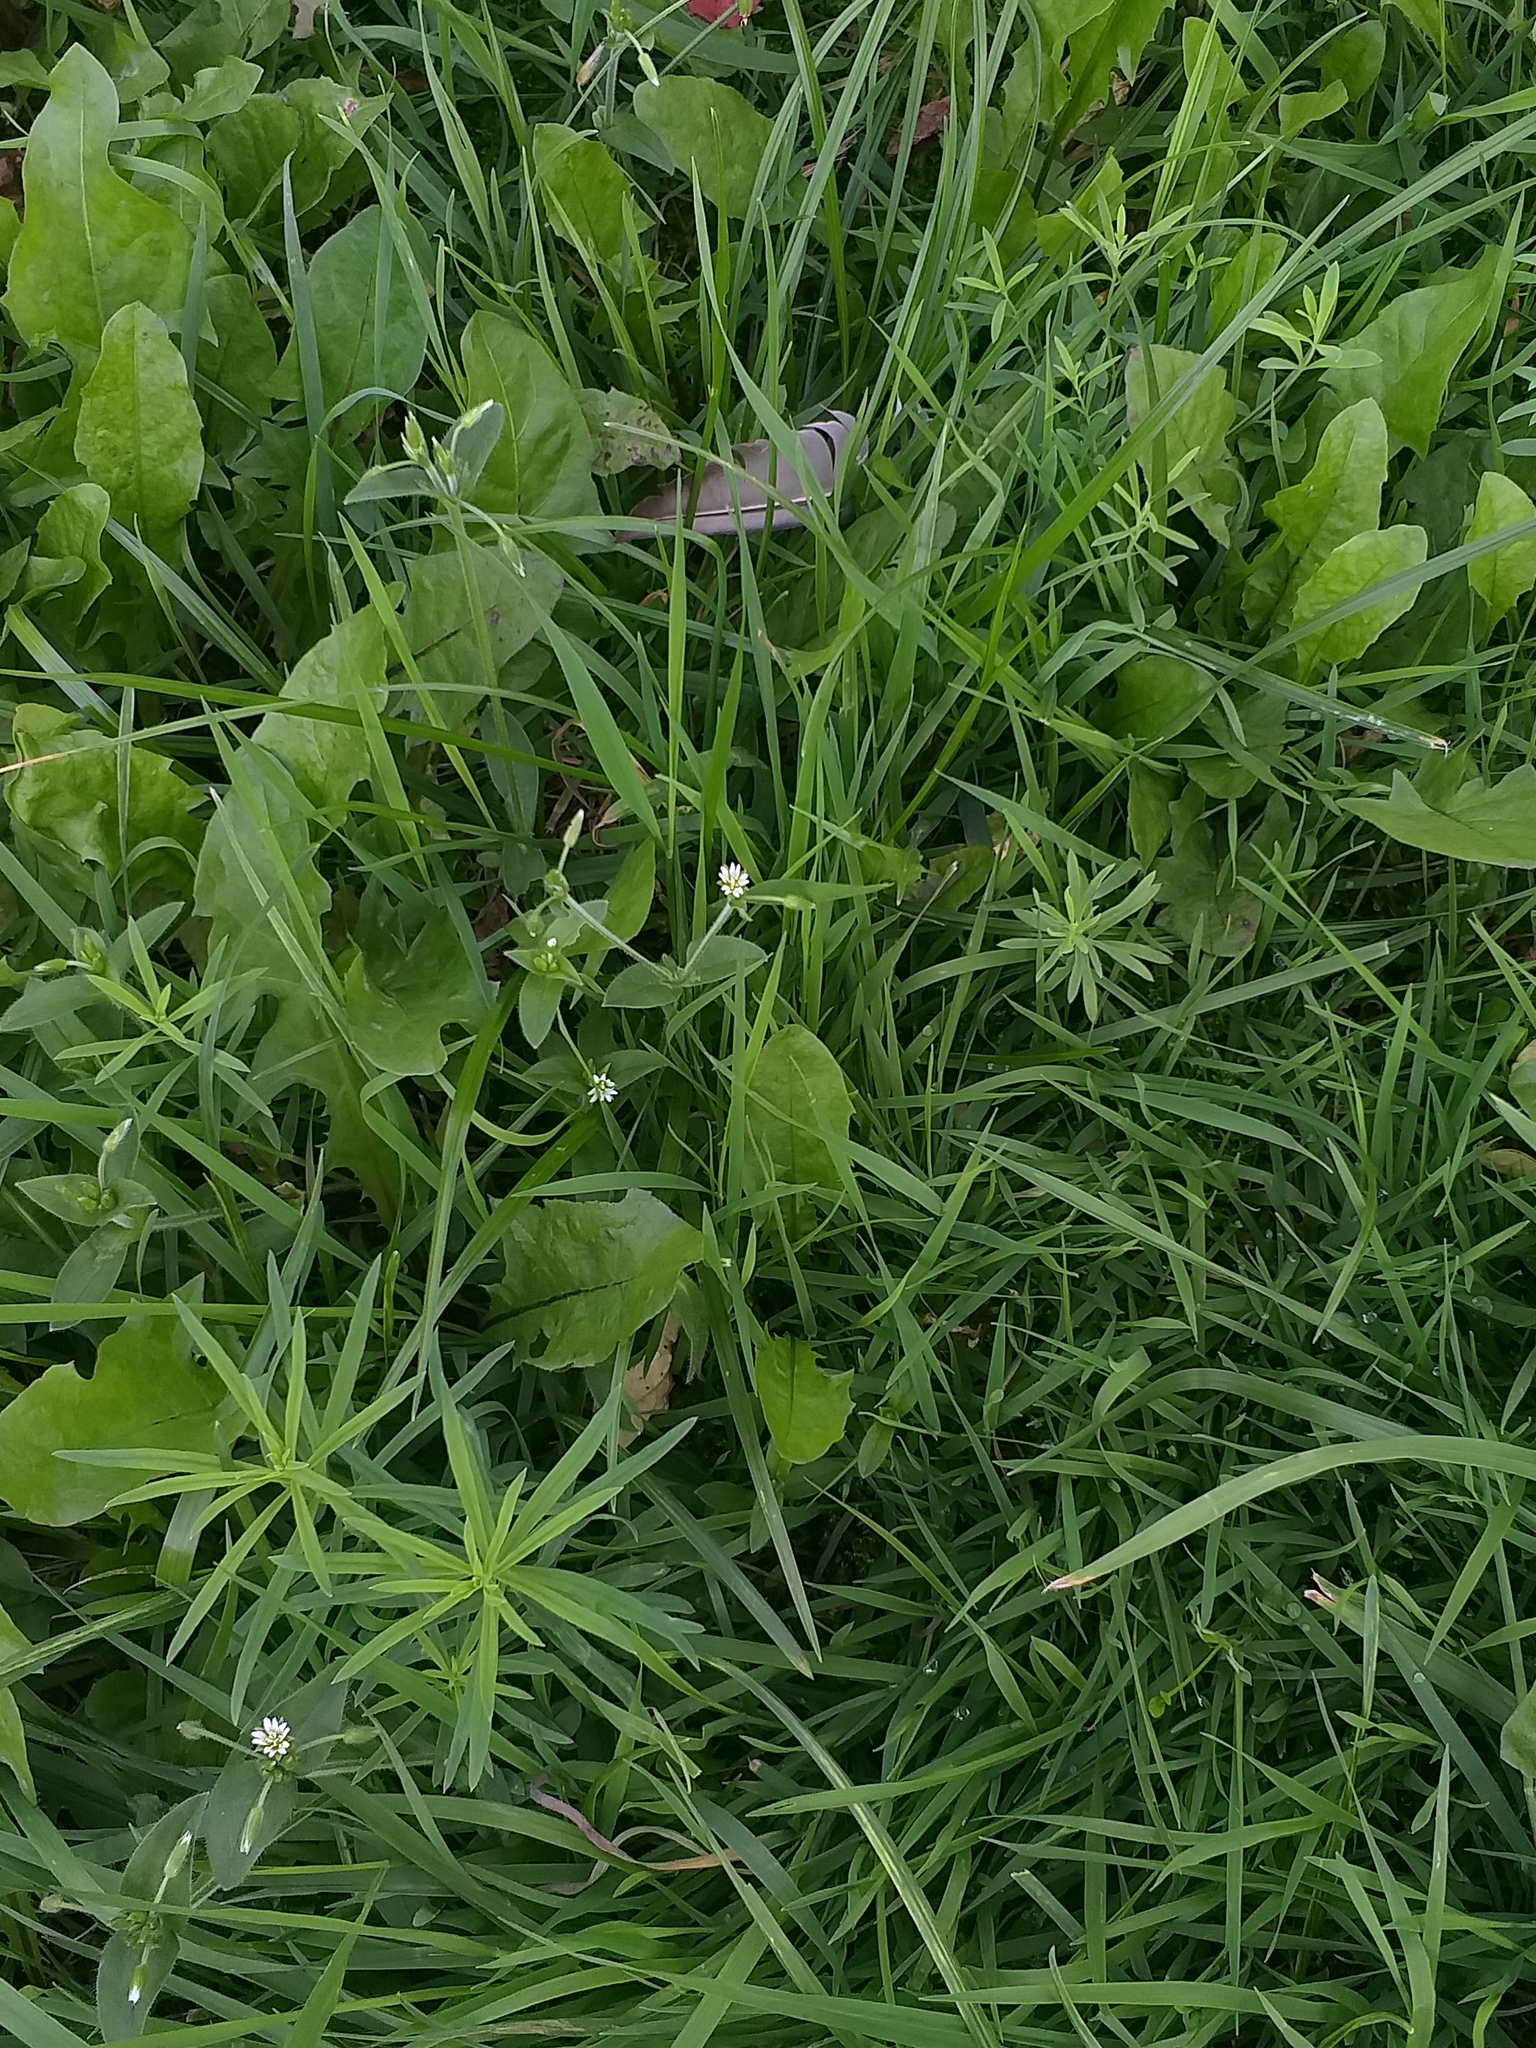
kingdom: Plantae
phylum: Tracheophyta
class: Magnoliopsida
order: Caryophyllales
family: Caryophyllaceae
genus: Cerastium
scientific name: Cerastium holosteoides
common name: Big chickweed
